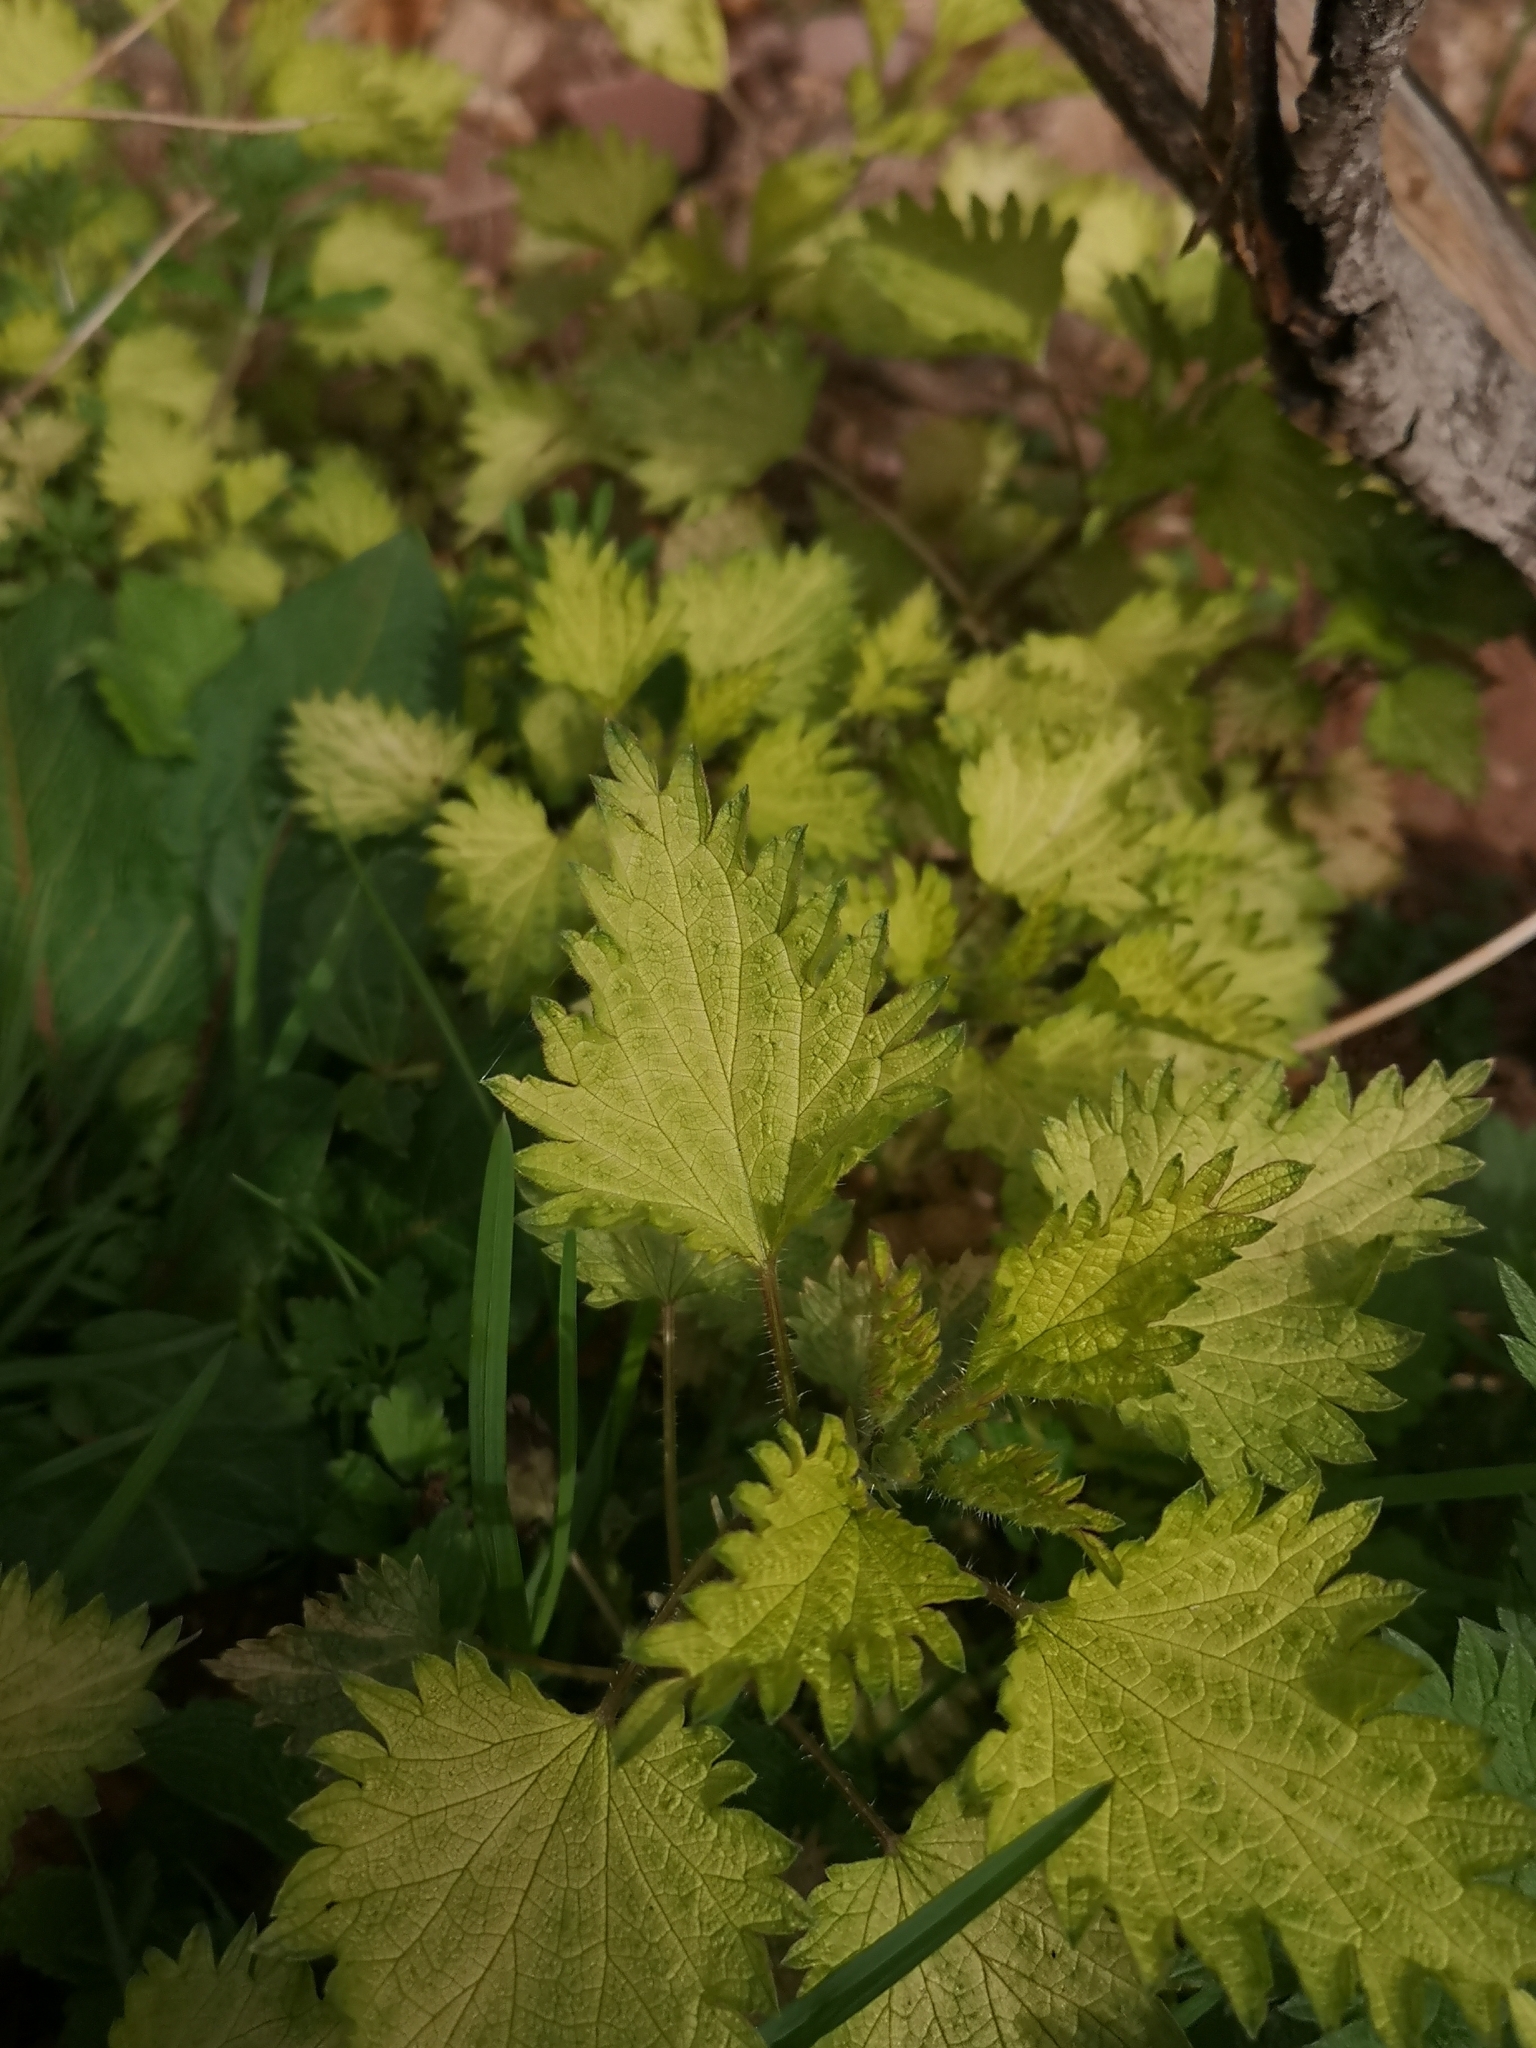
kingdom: Plantae
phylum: Tracheophyta
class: Magnoliopsida
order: Rosales
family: Urticaceae
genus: Urtica
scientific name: Urtica dioica
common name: Common nettle
